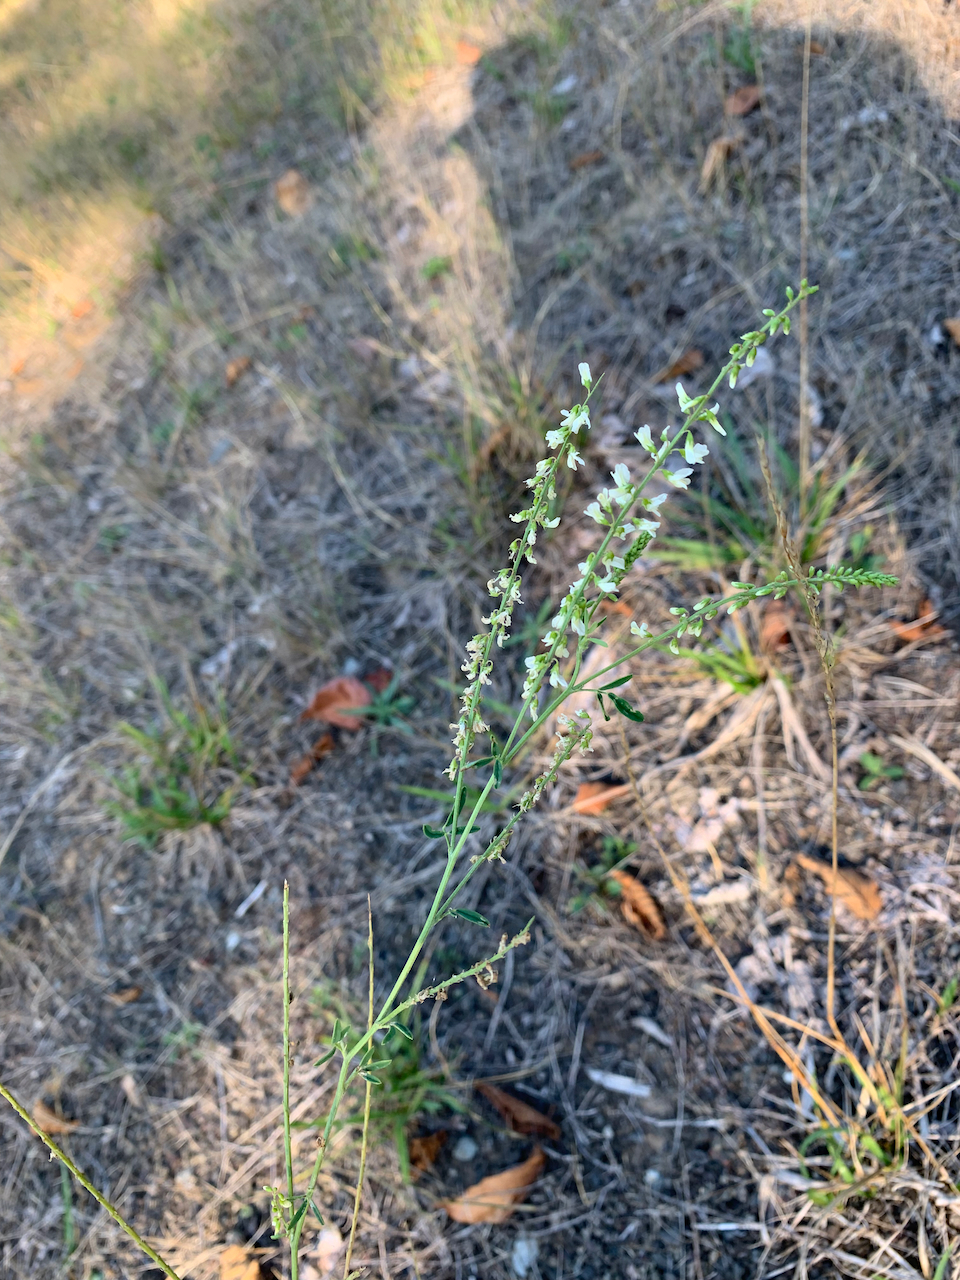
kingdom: Plantae
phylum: Tracheophyta
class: Magnoliopsida
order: Fabales
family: Fabaceae
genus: Melilotus
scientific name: Melilotus albus
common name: White melilot
